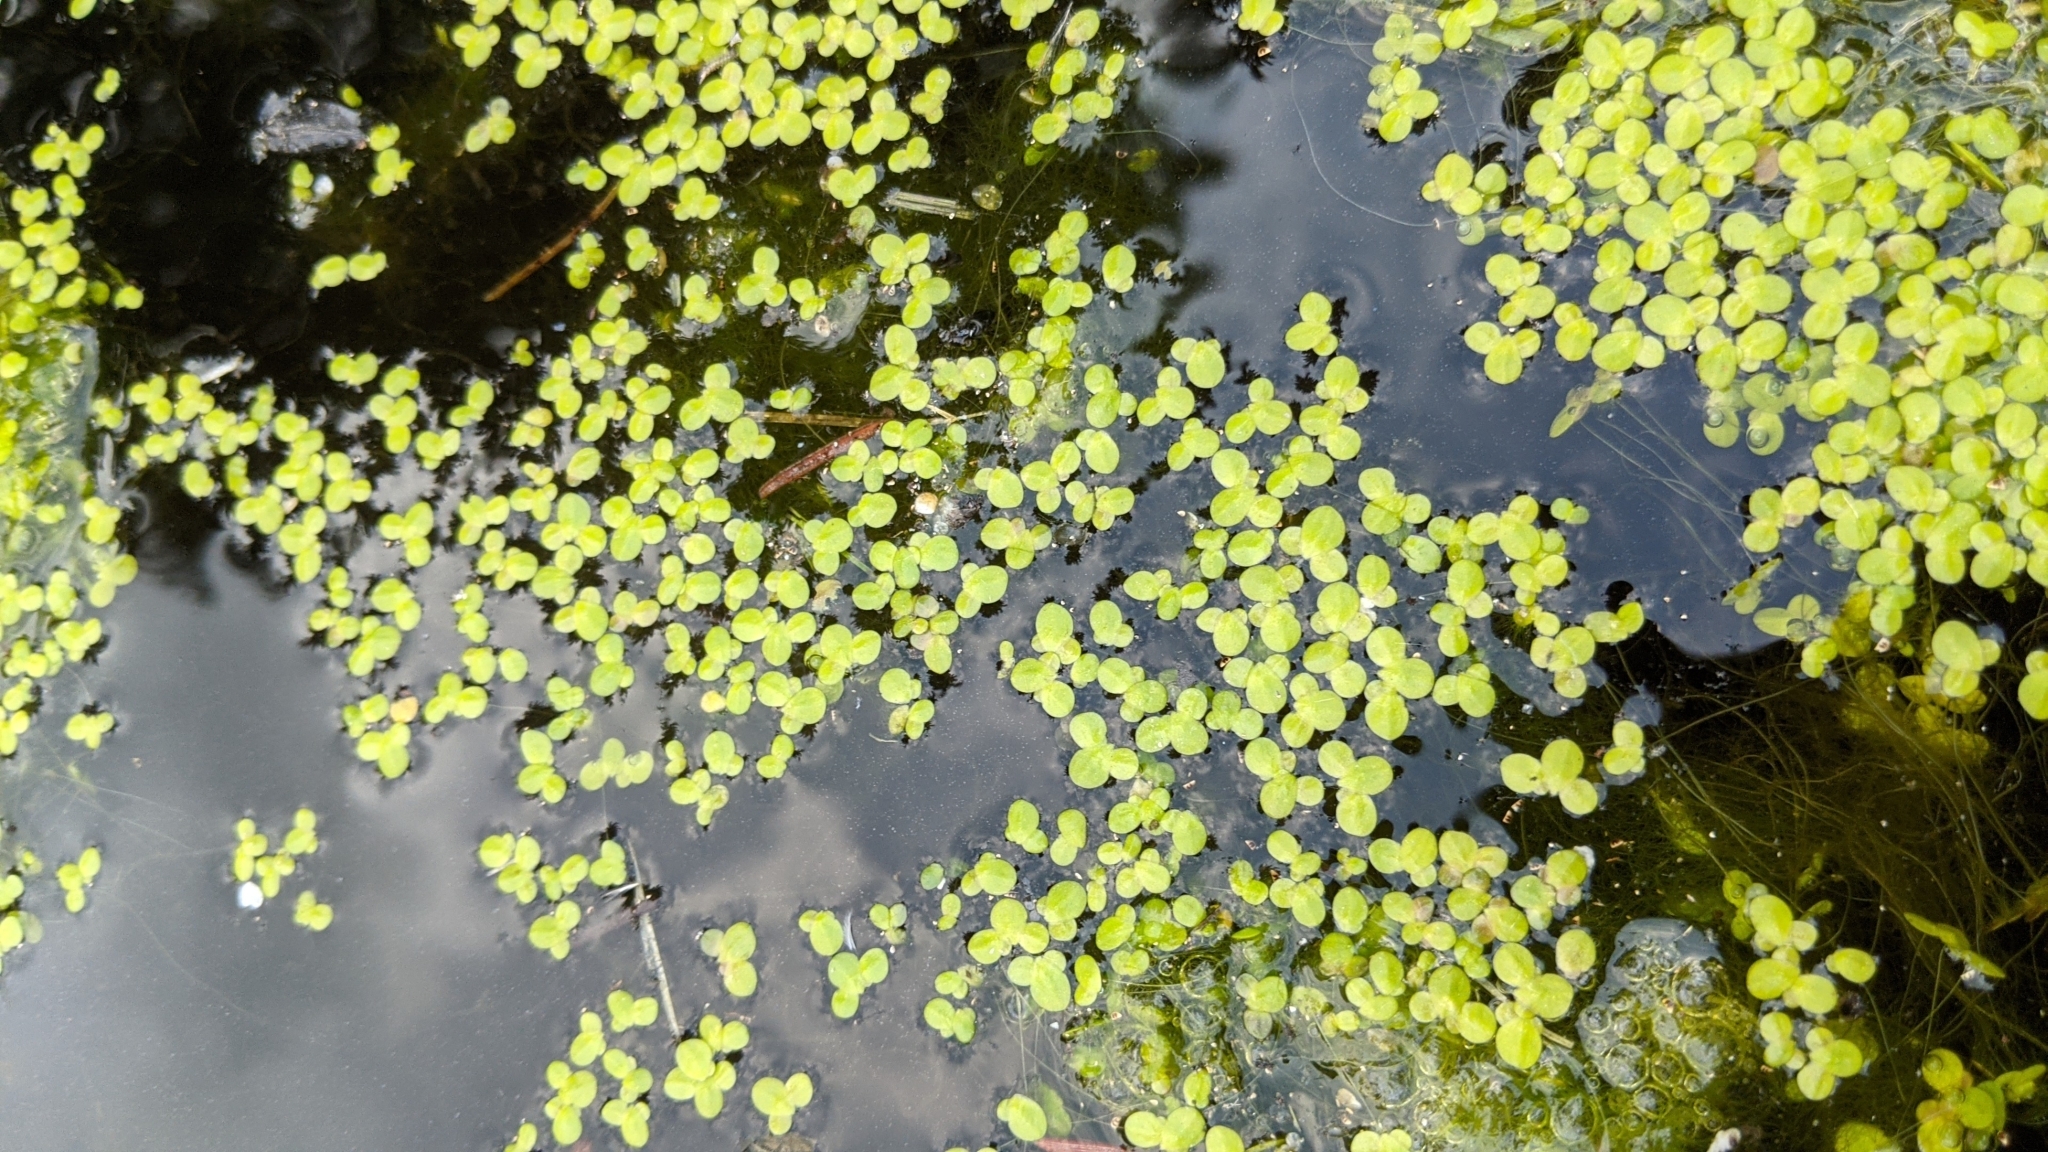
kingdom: Plantae
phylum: Tracheophyta
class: Liliopsida
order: Alismatales
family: Araceae
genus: Lemna
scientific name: Lemna minor
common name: Common duckweed
